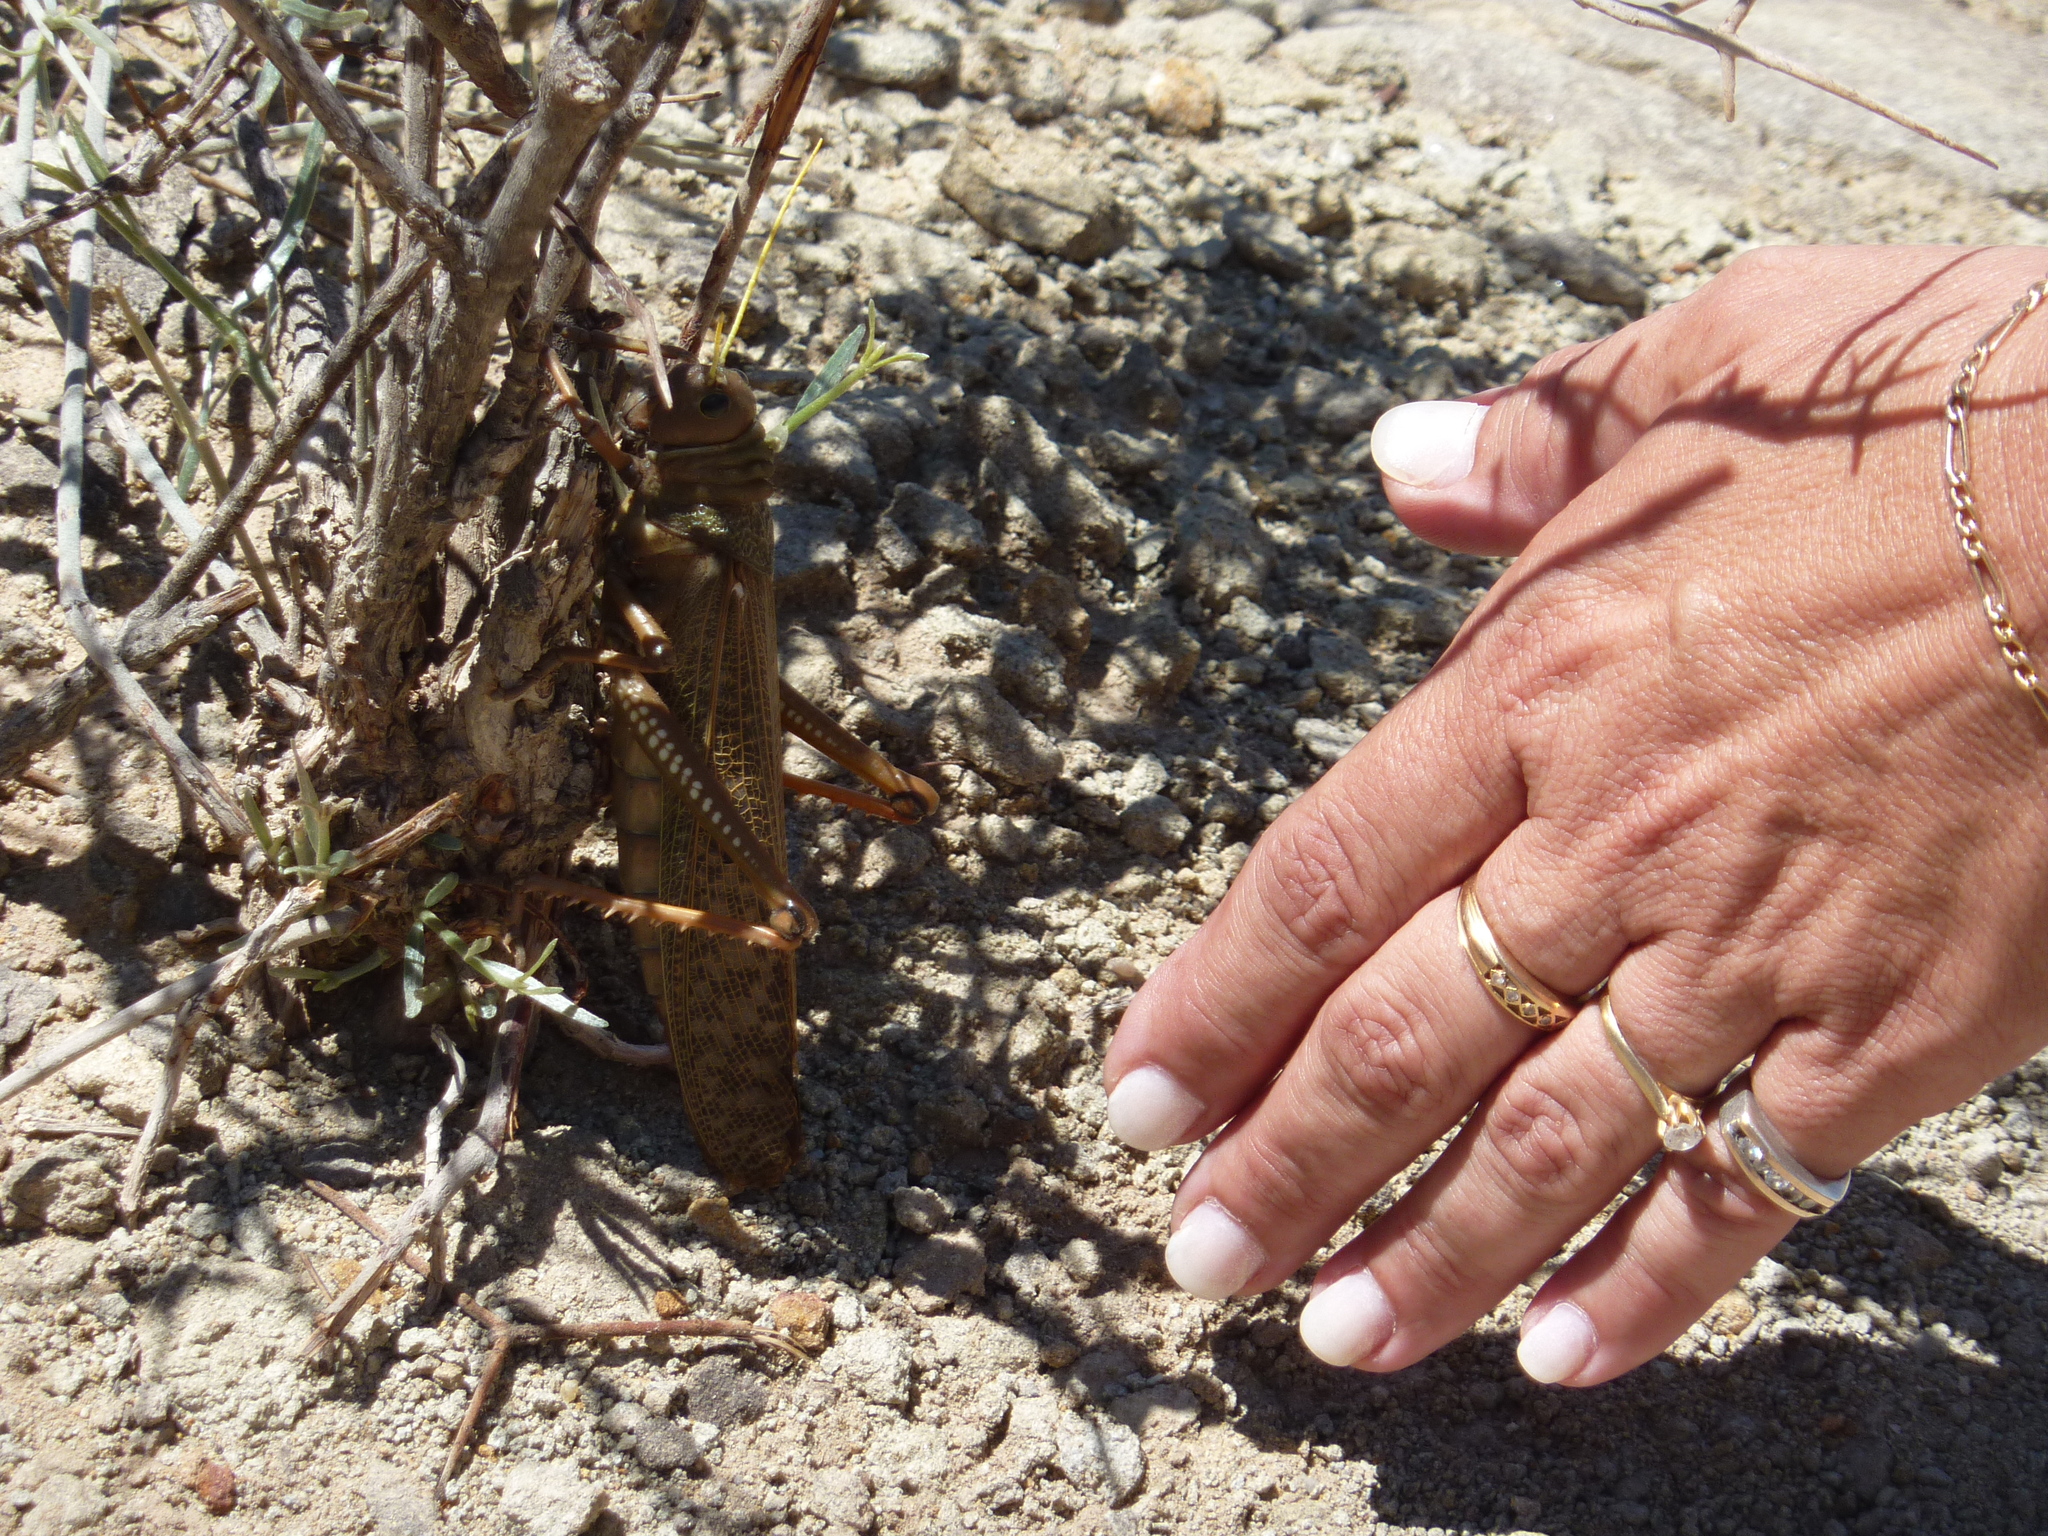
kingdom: Animalia
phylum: Arthropoda
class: Insecta
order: Orthoptera
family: Romaleidae
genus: Tropidacris
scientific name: Tropidacris collaris
